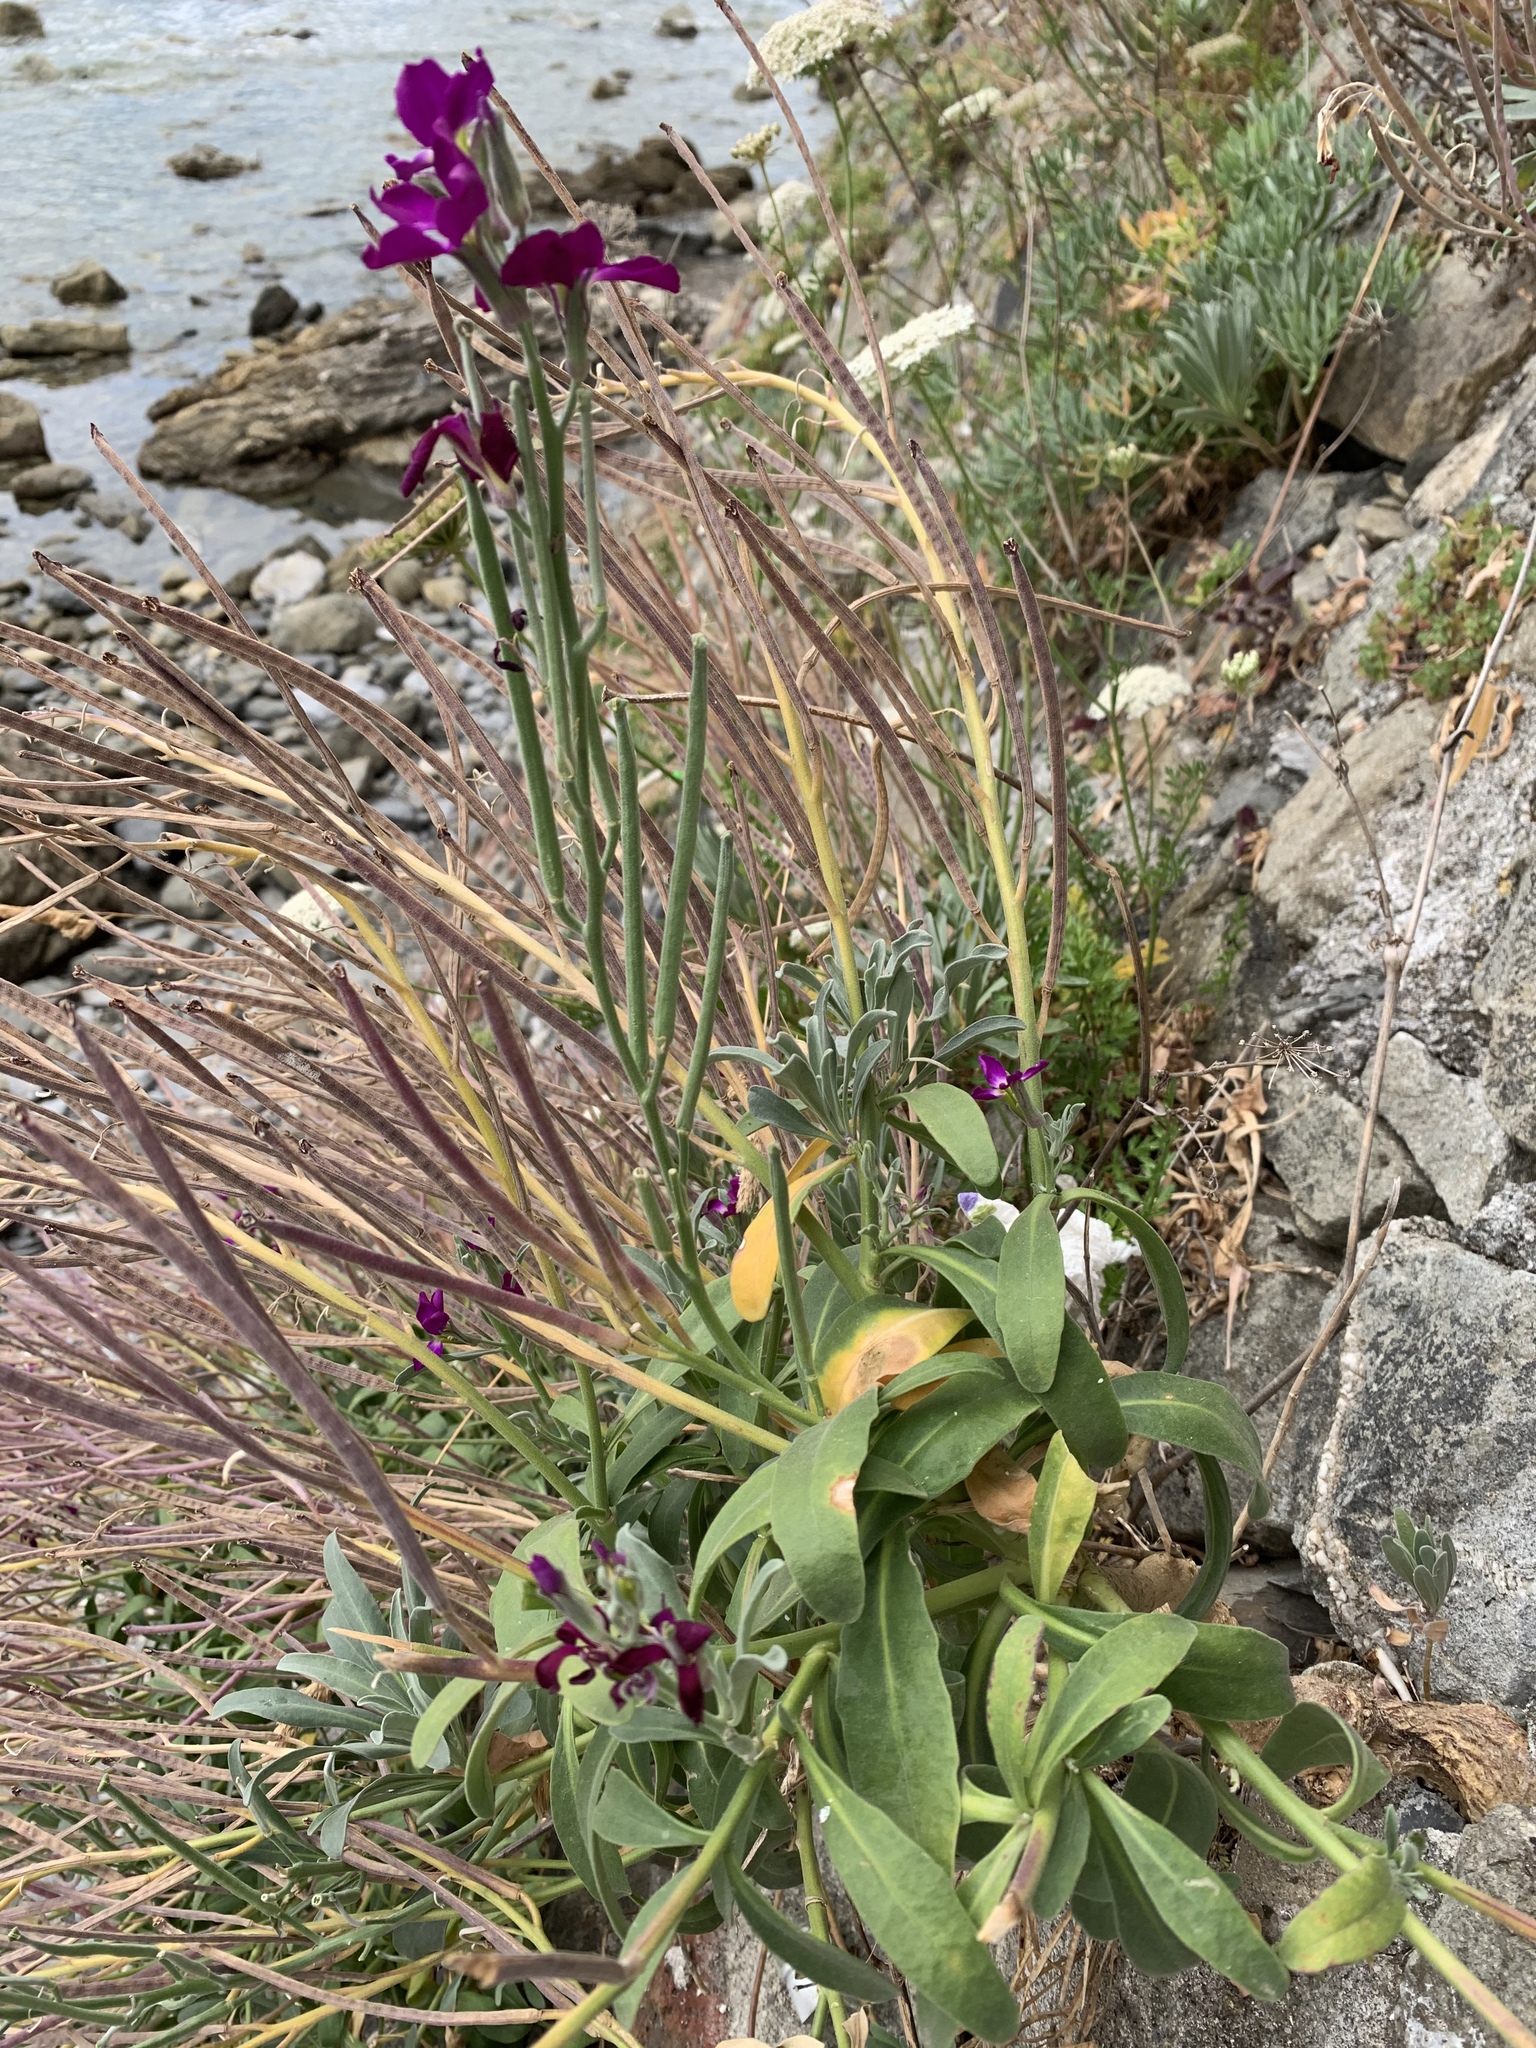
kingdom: Plantae
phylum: Tracheophyta
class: Magnoliopsida
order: Brassicales
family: Brassicaceae
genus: Matthiola
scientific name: Matthiola incana
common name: Hoary stock
